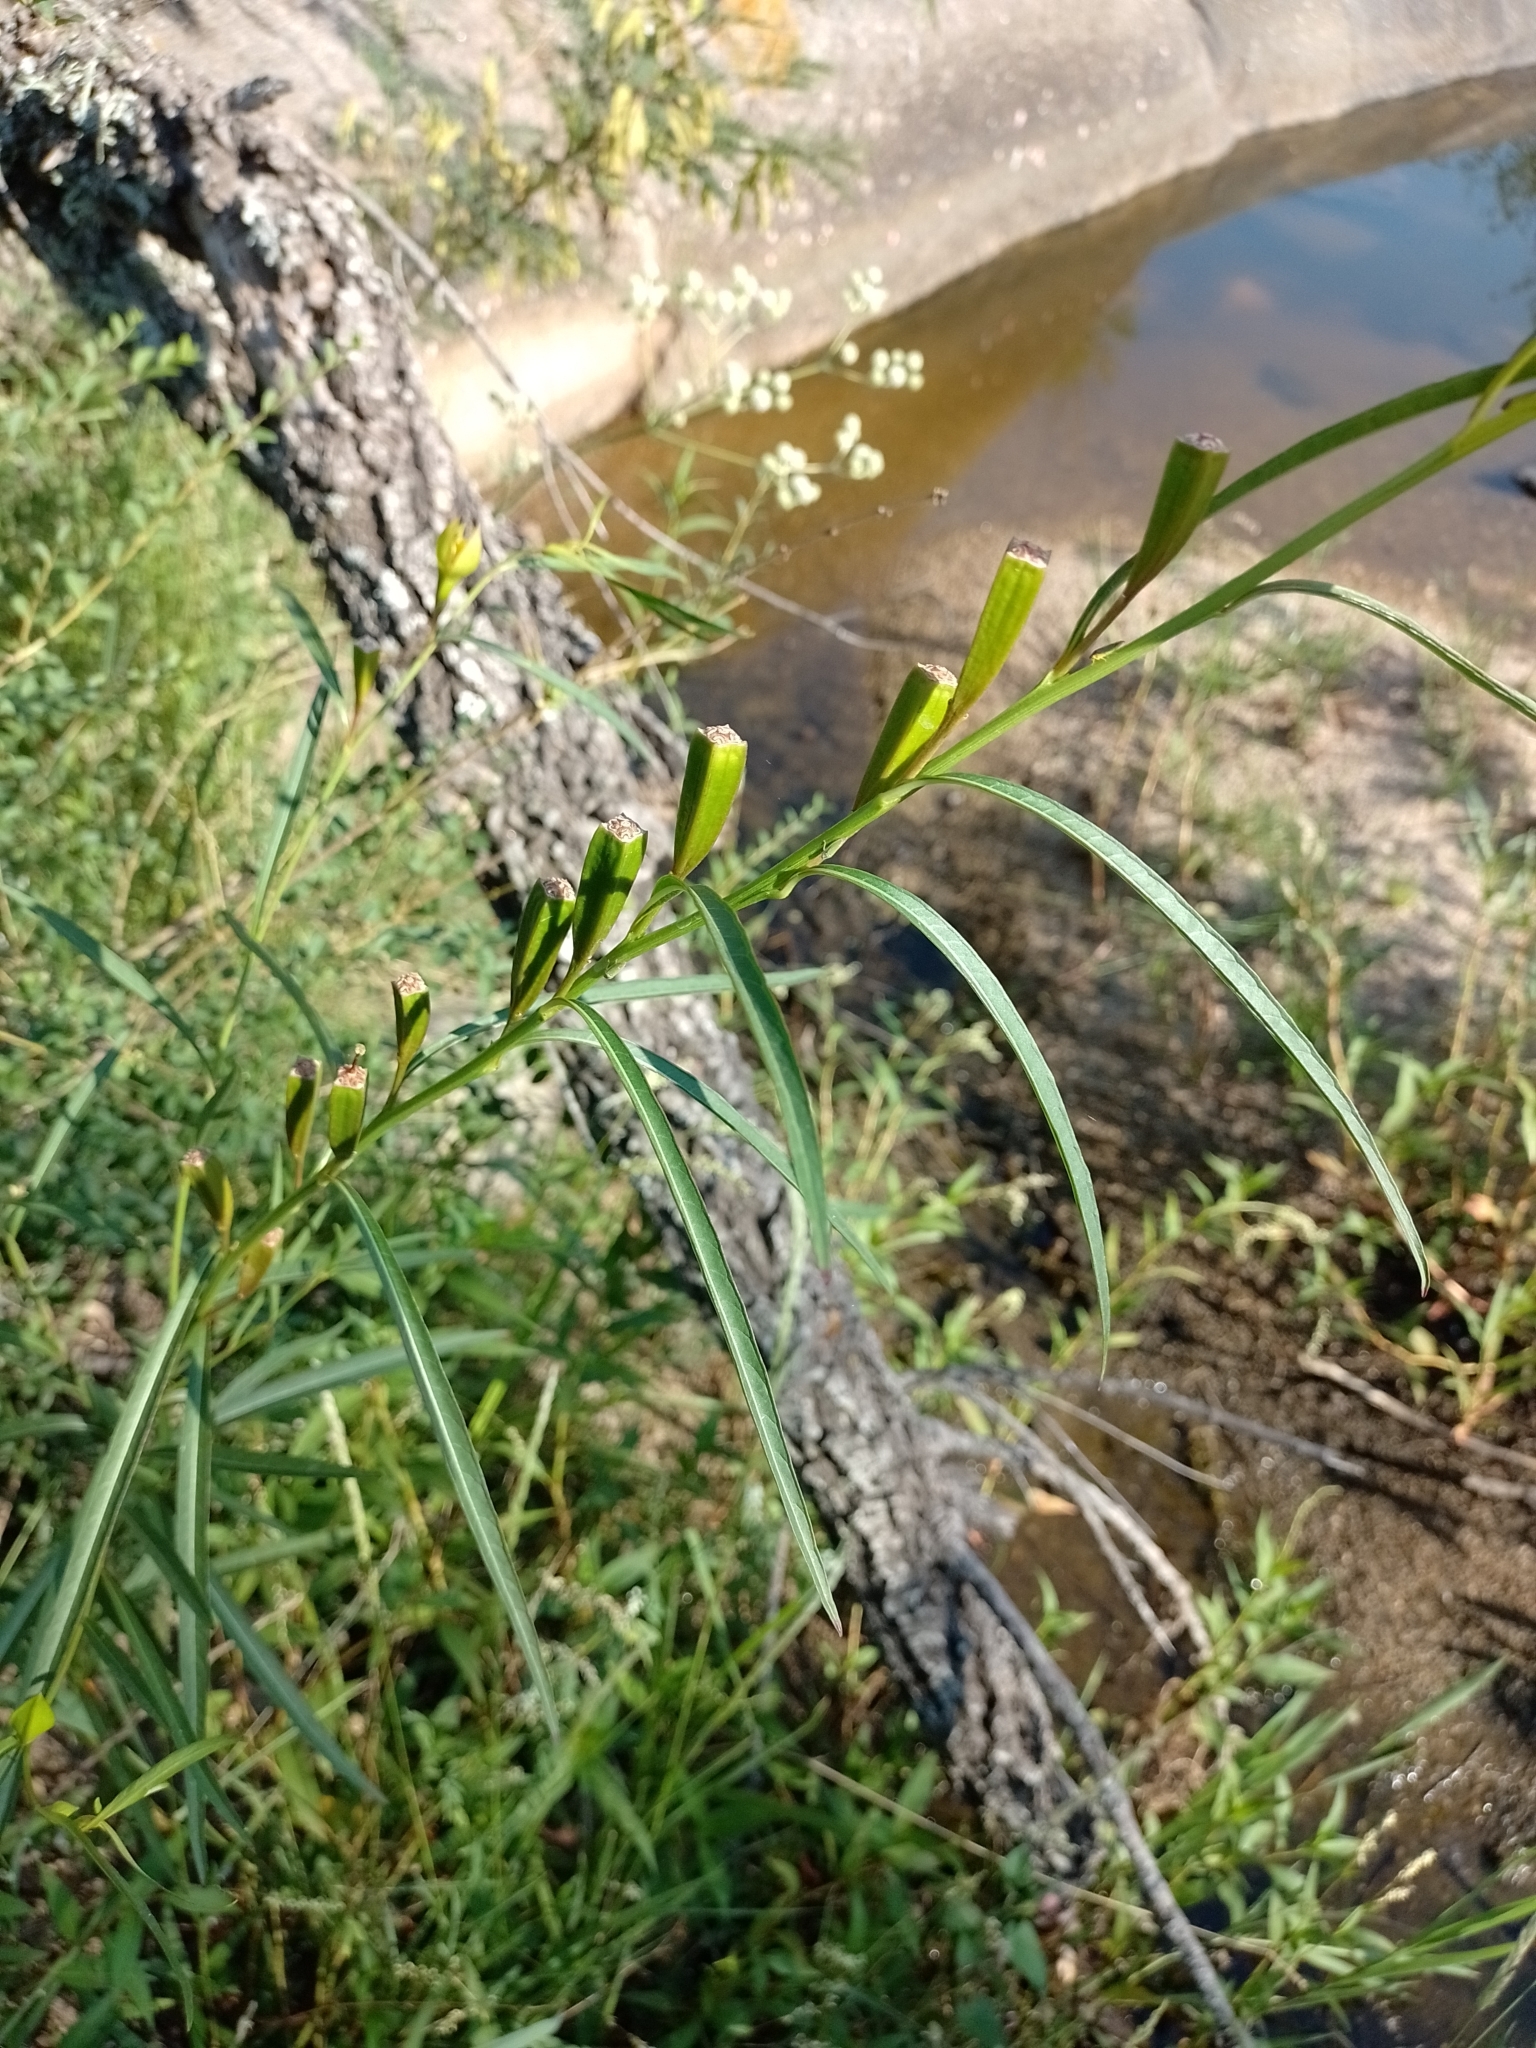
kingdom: Plantae
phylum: Tracheophyta
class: Magnoliopsida
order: Myrtales
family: Onagraceae
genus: Ludwigia
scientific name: Ludwigia longifolia
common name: Longleaf primrose-willow
